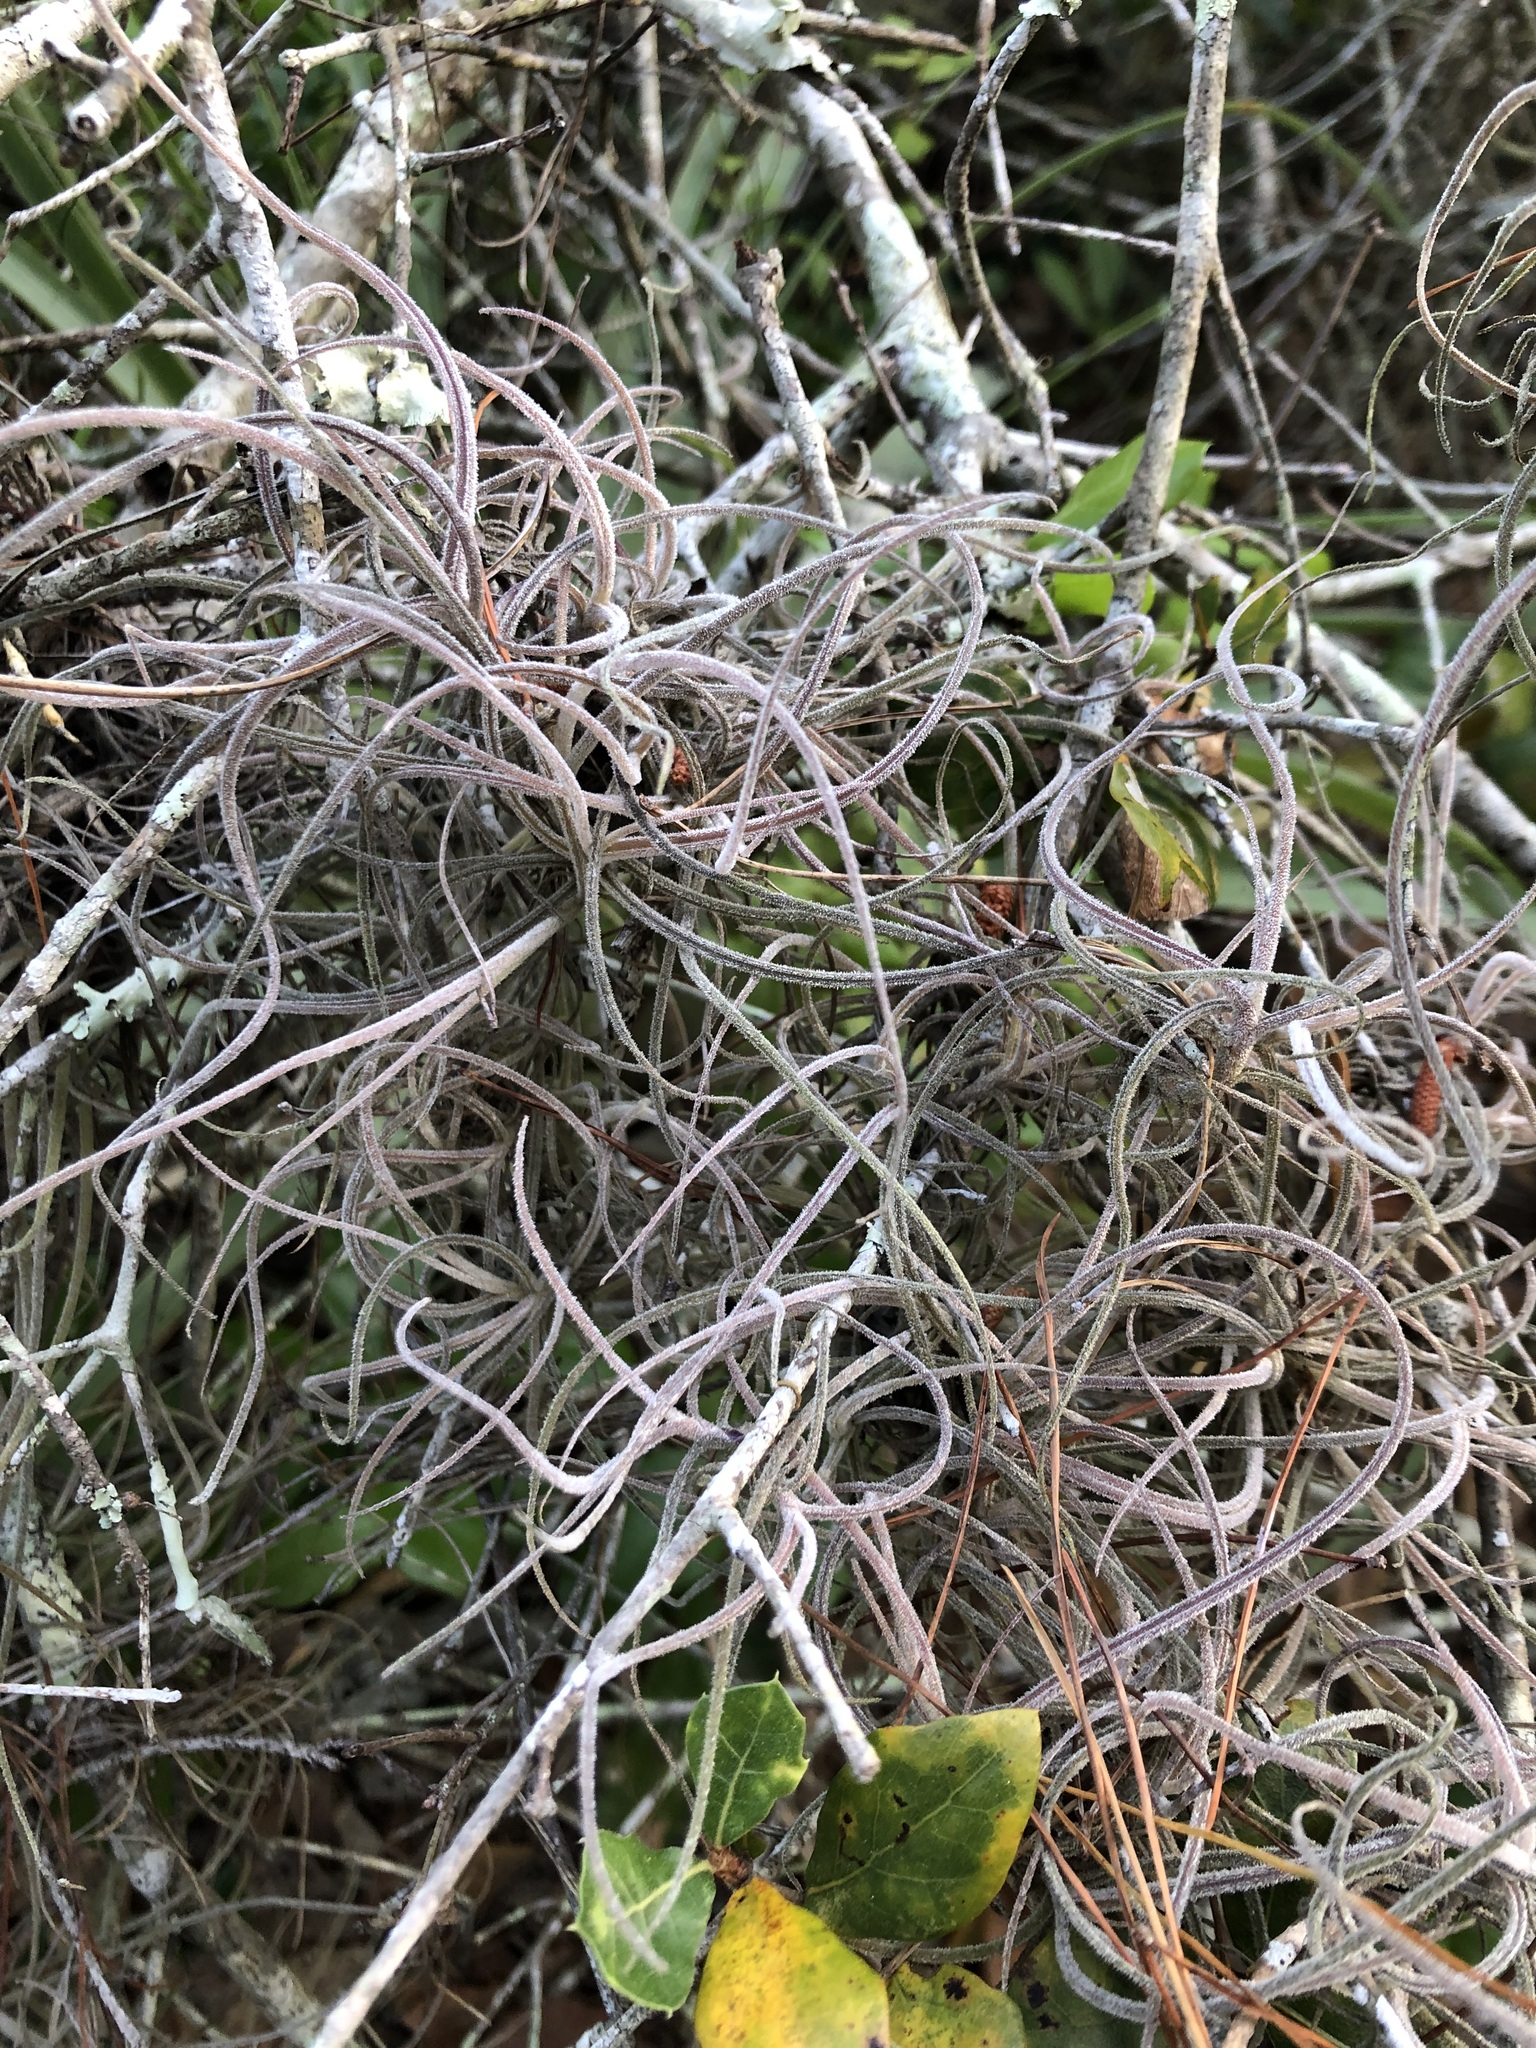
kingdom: Plantae
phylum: Tracheophyta
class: Liliopsida
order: Poales
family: Bromeliaceae
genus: Tillandsia
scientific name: Tillandsia recurvata
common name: Small ballmoss
